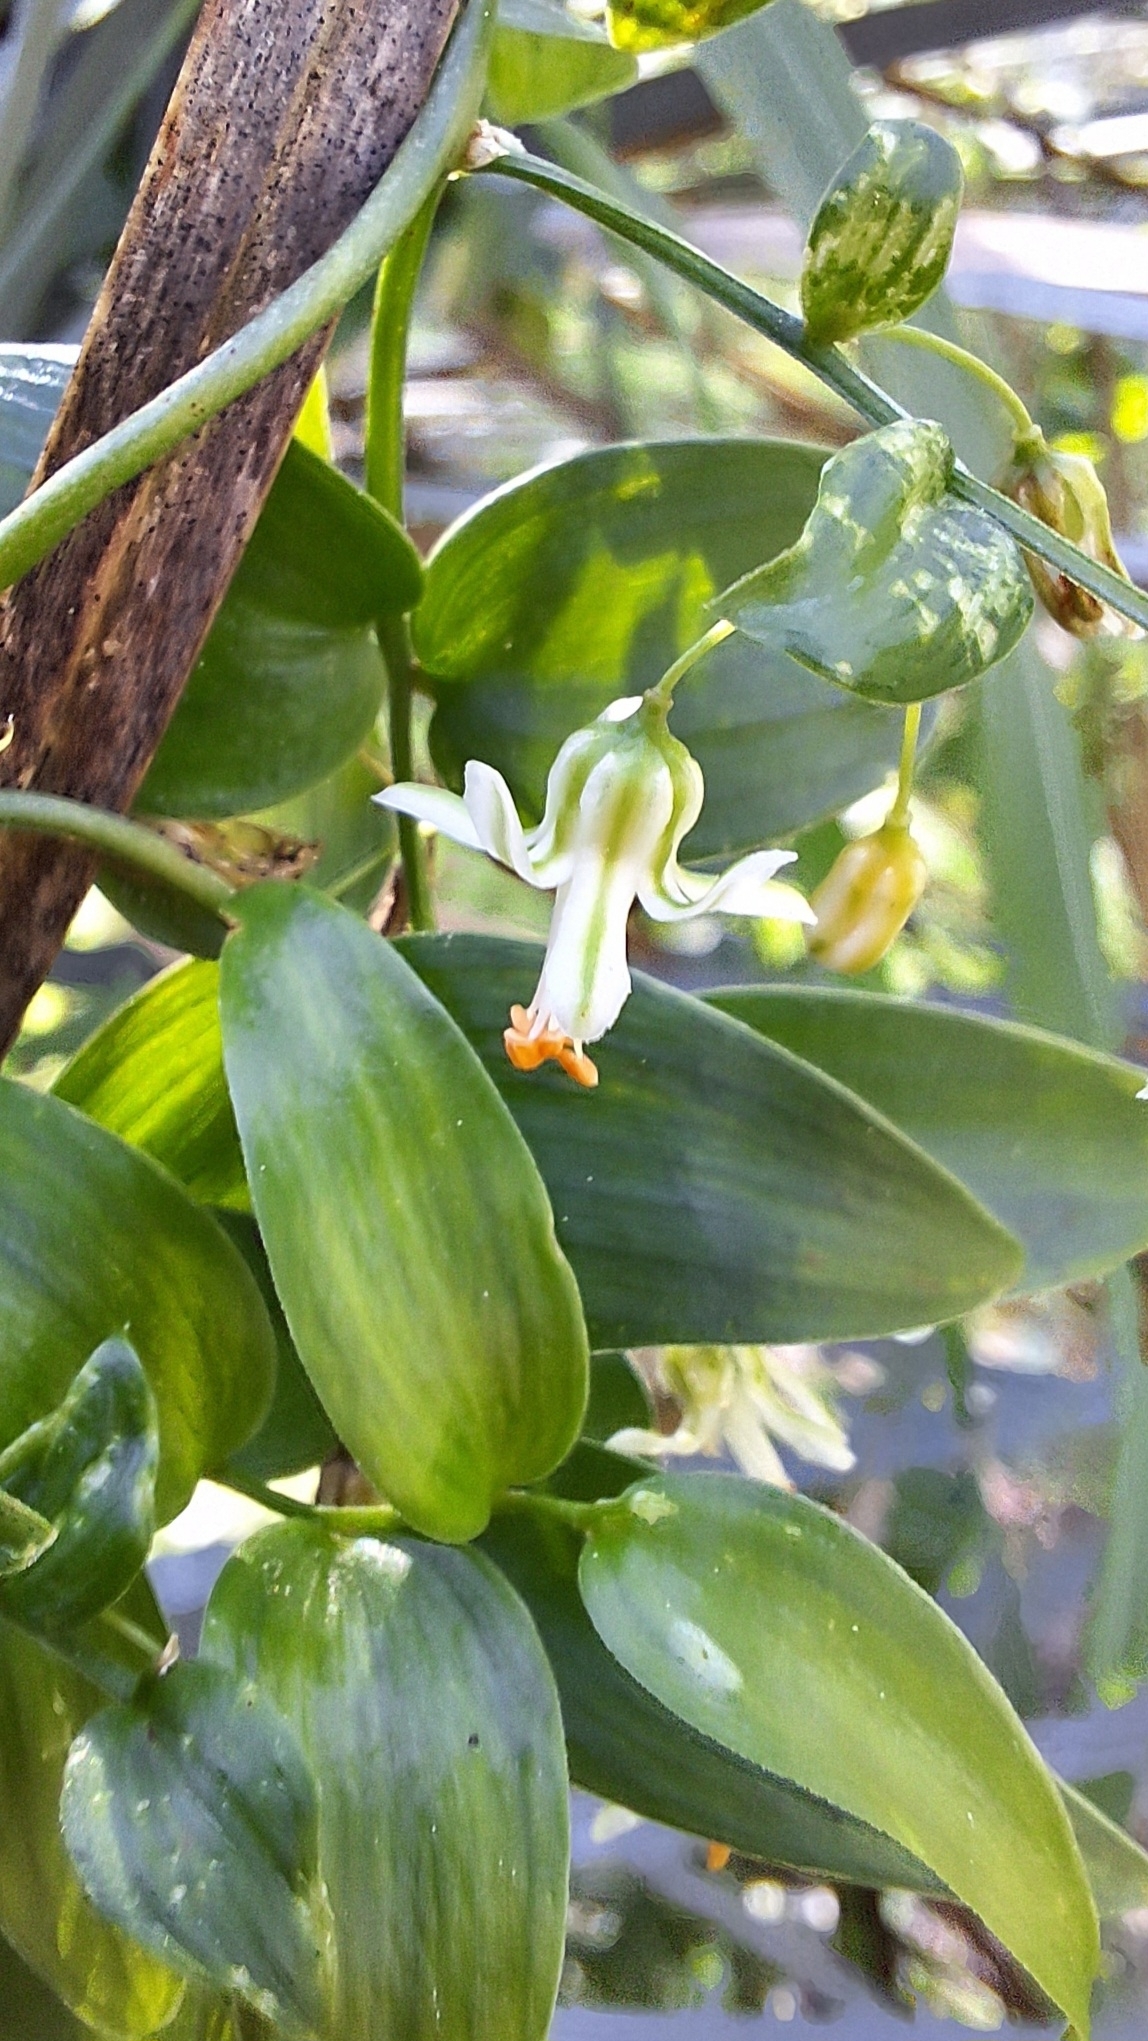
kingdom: Plantae
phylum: Tracheophyta
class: Liliopsida
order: Asparagales
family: Asparagaceae
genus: Asparagus
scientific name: Asparagus asparagoides
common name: African asparagus fern
